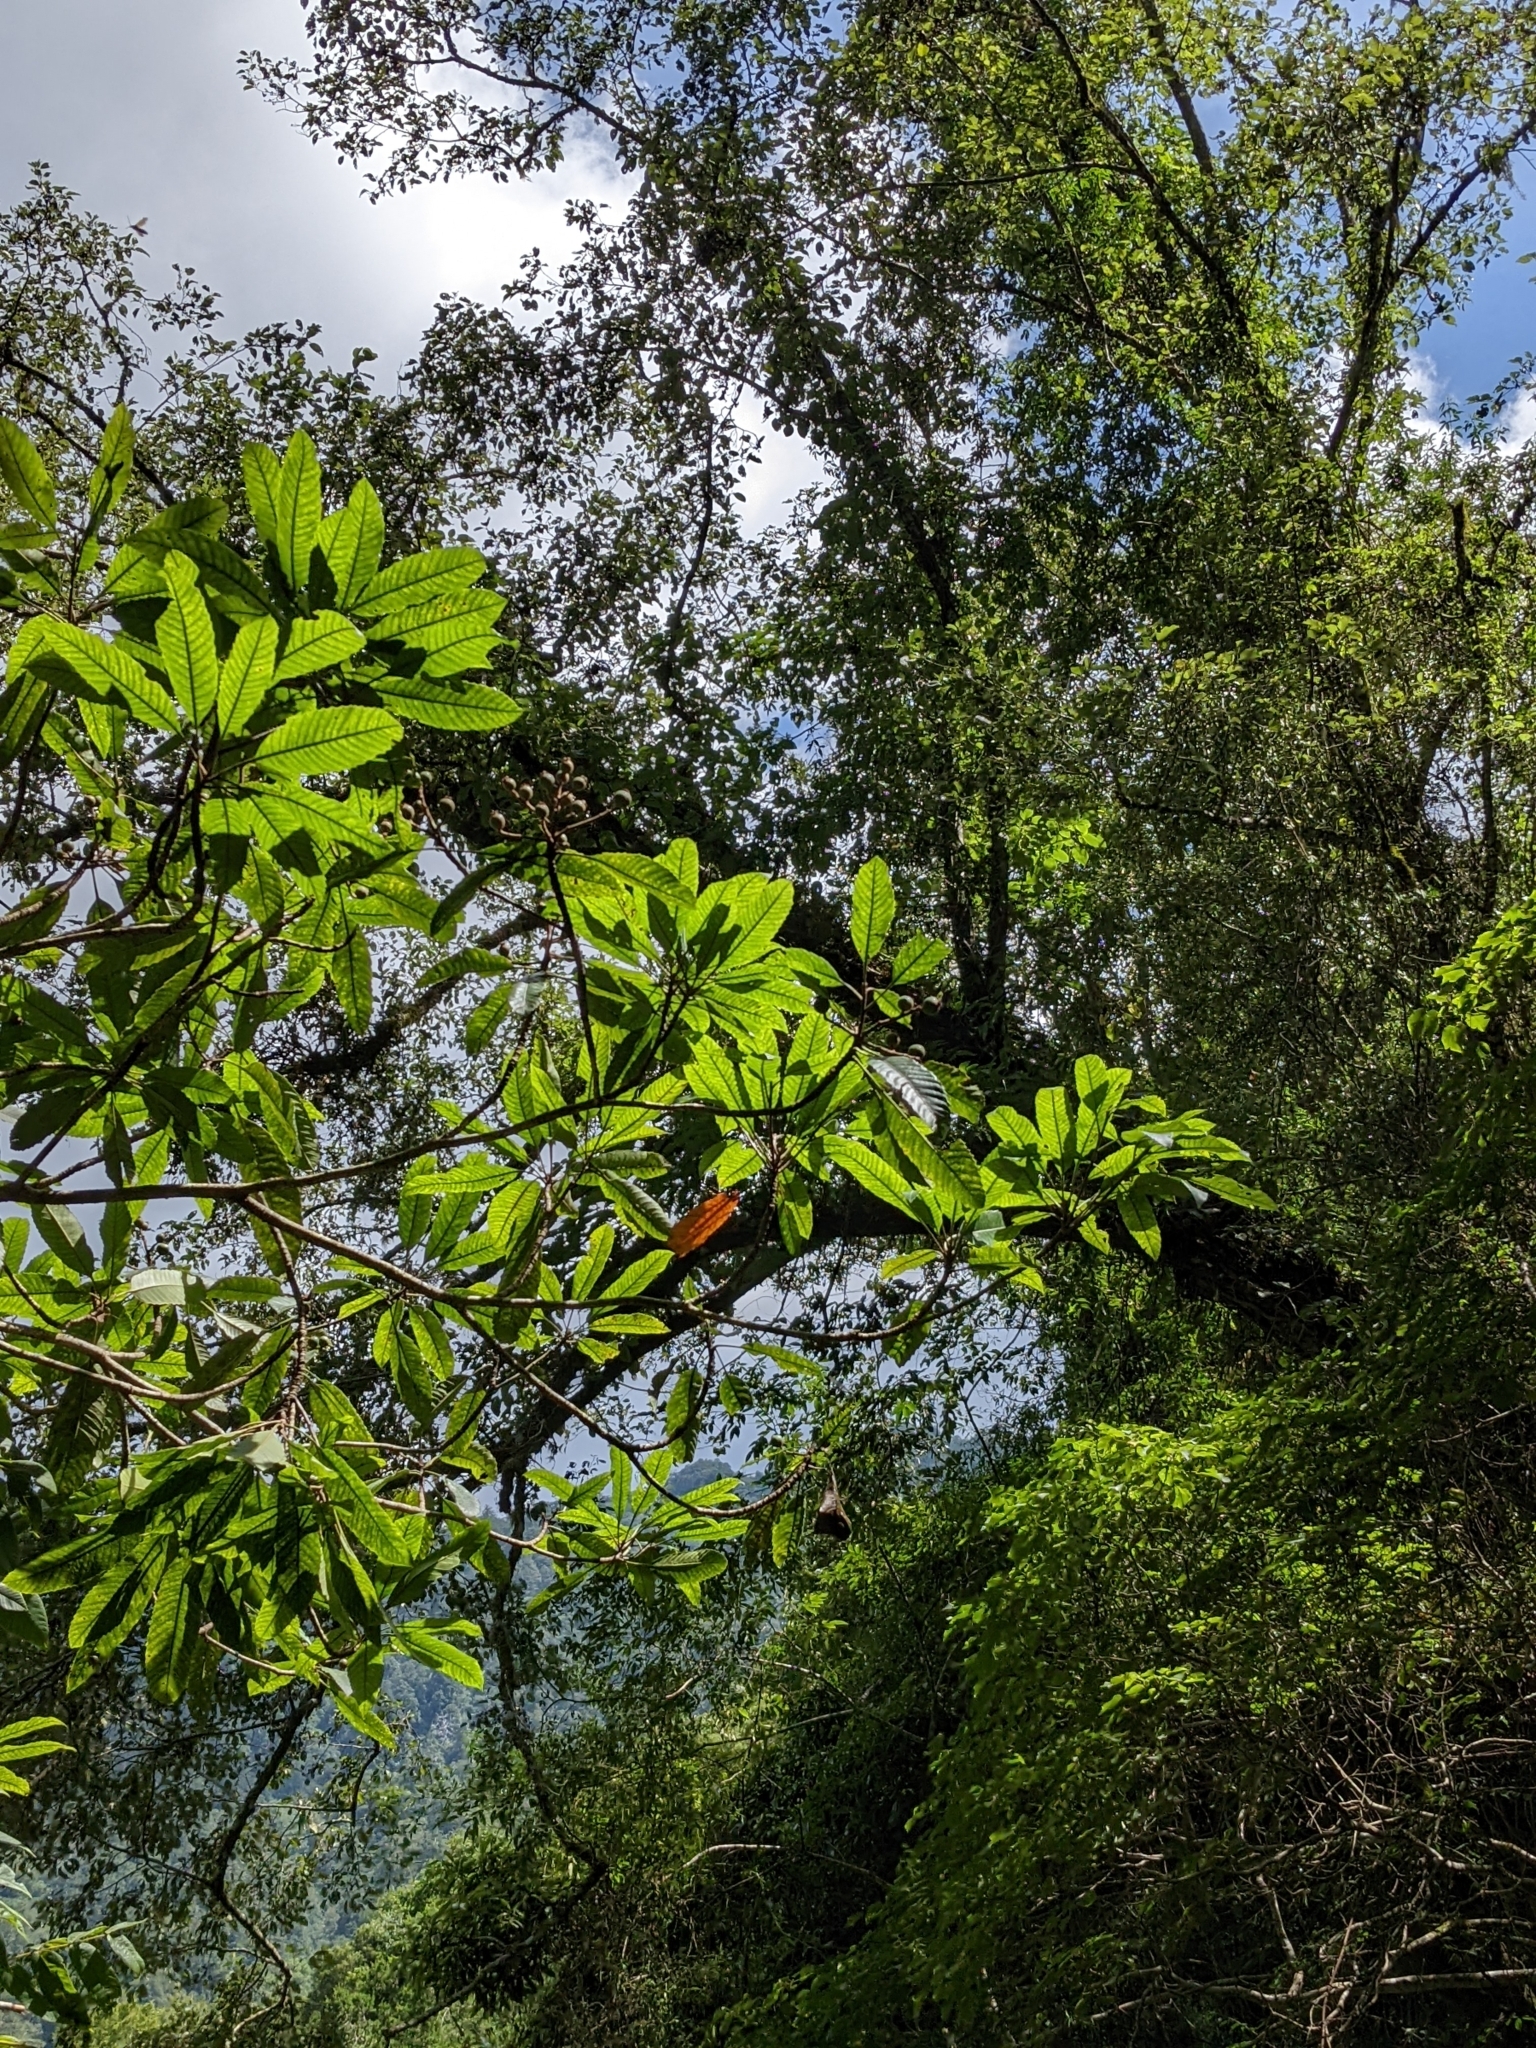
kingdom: Plantae
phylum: Tracheophyta
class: Magnoliopsida
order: Rosales
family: Rosaceae
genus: Rhaphiolepis
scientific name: Rhaphiolepis deflexa
